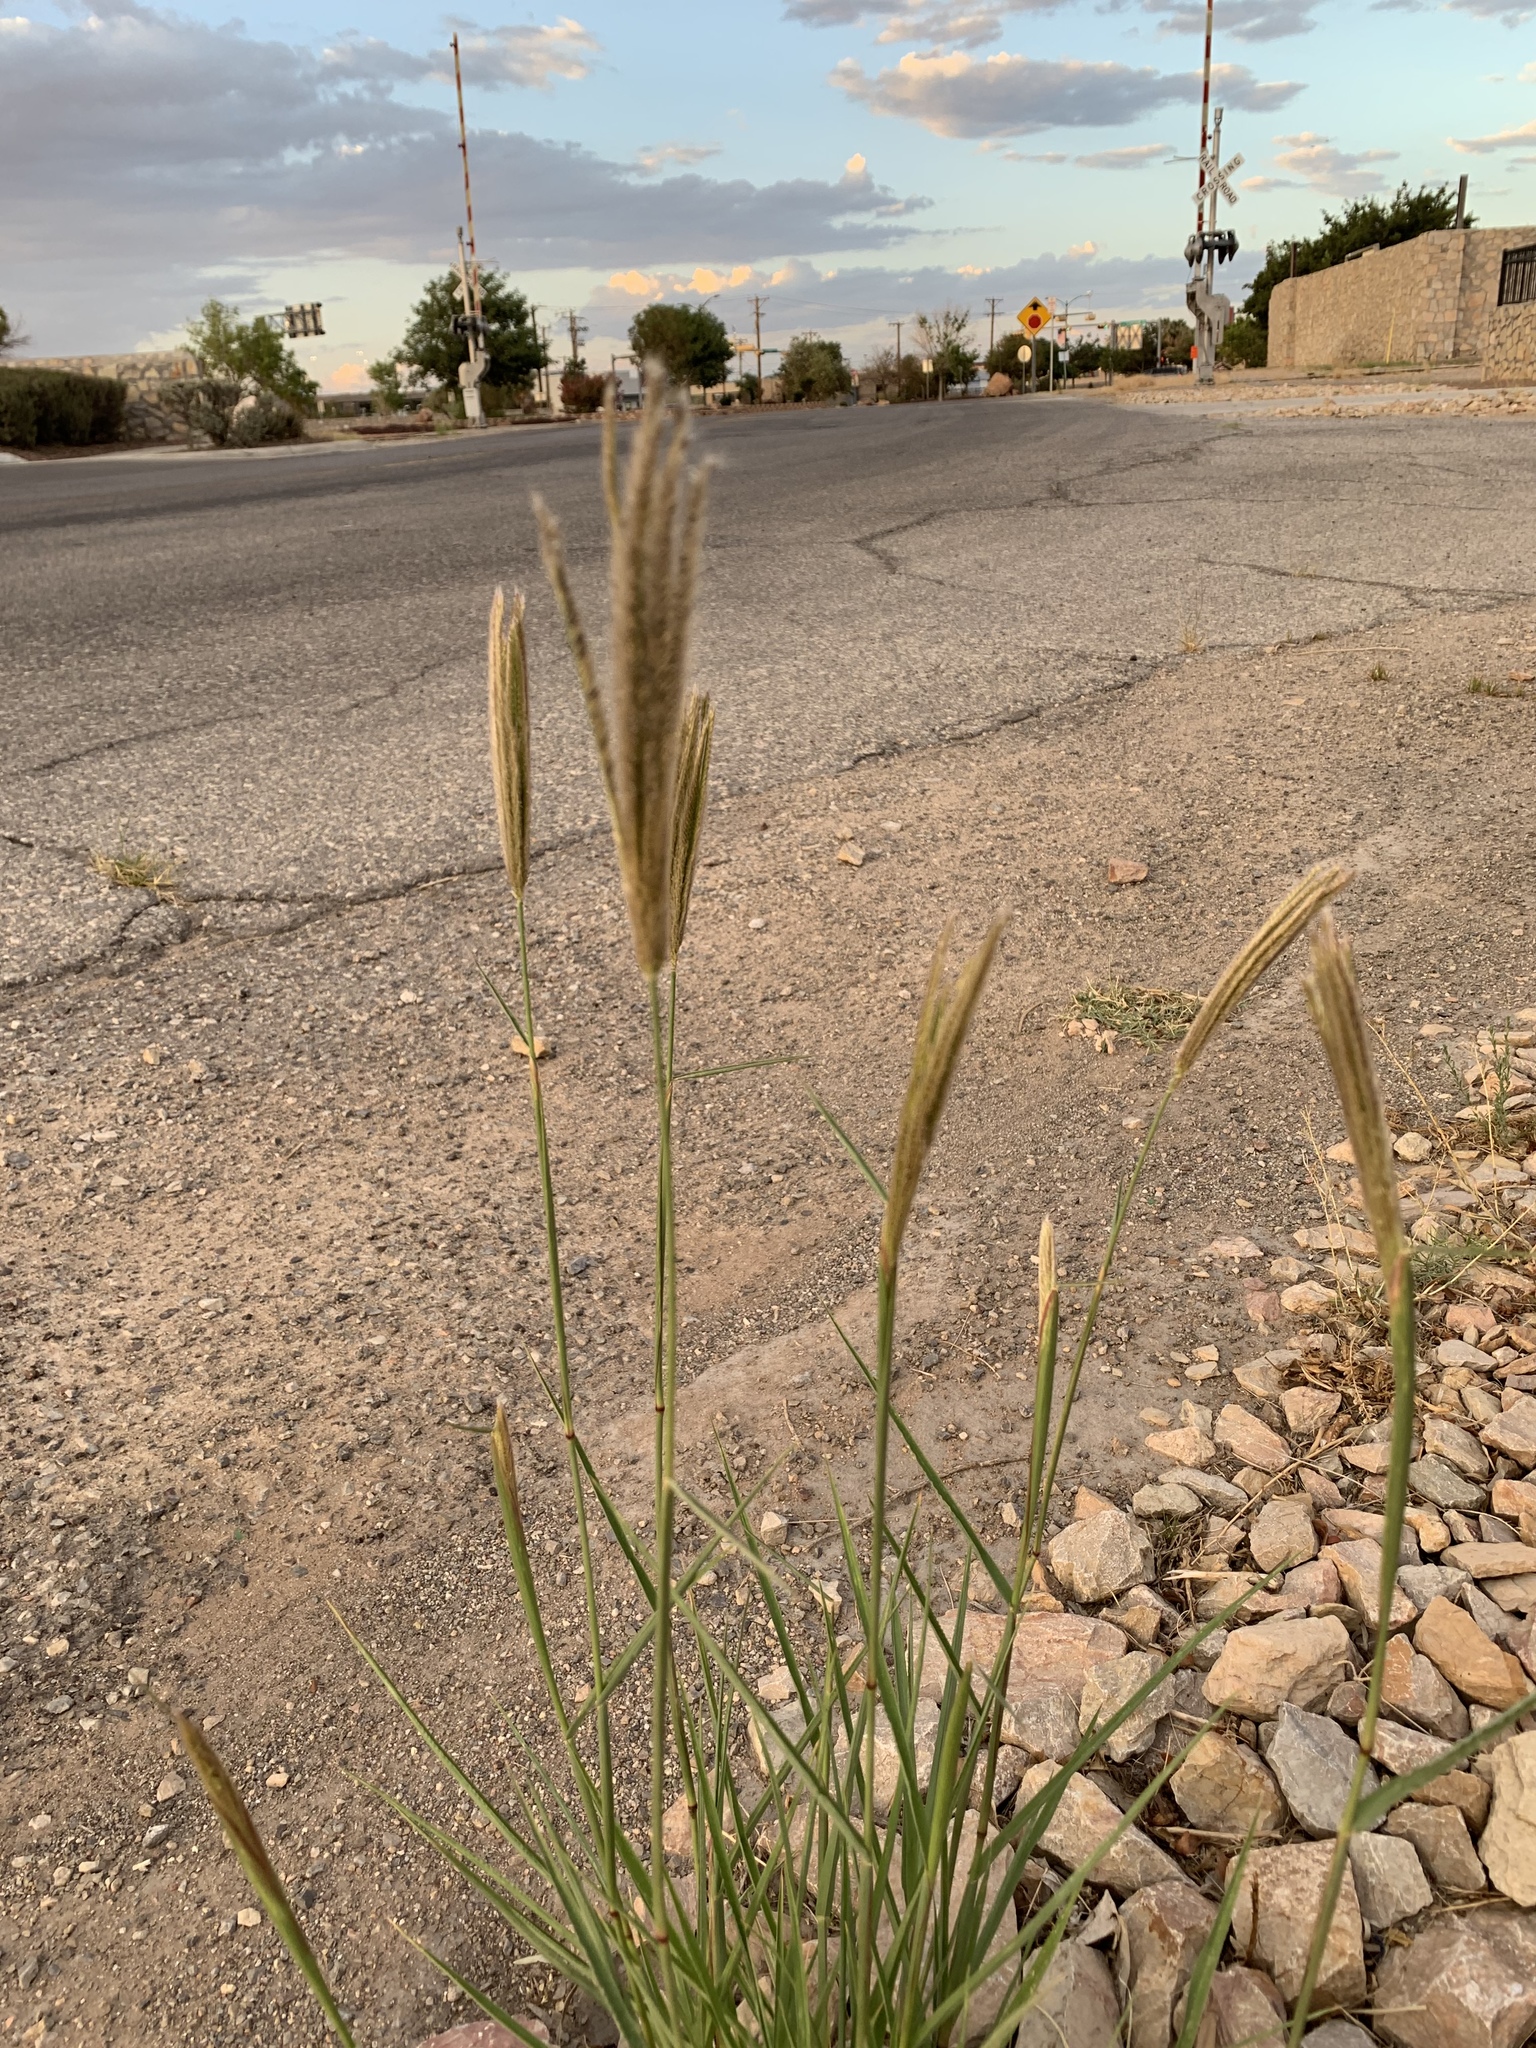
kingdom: Plantae
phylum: Tracheophyta
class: Liliopsida
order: Poales
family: Poaceae
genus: Chloris
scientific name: Chloris virgata
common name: Feathery rhodes-grass
